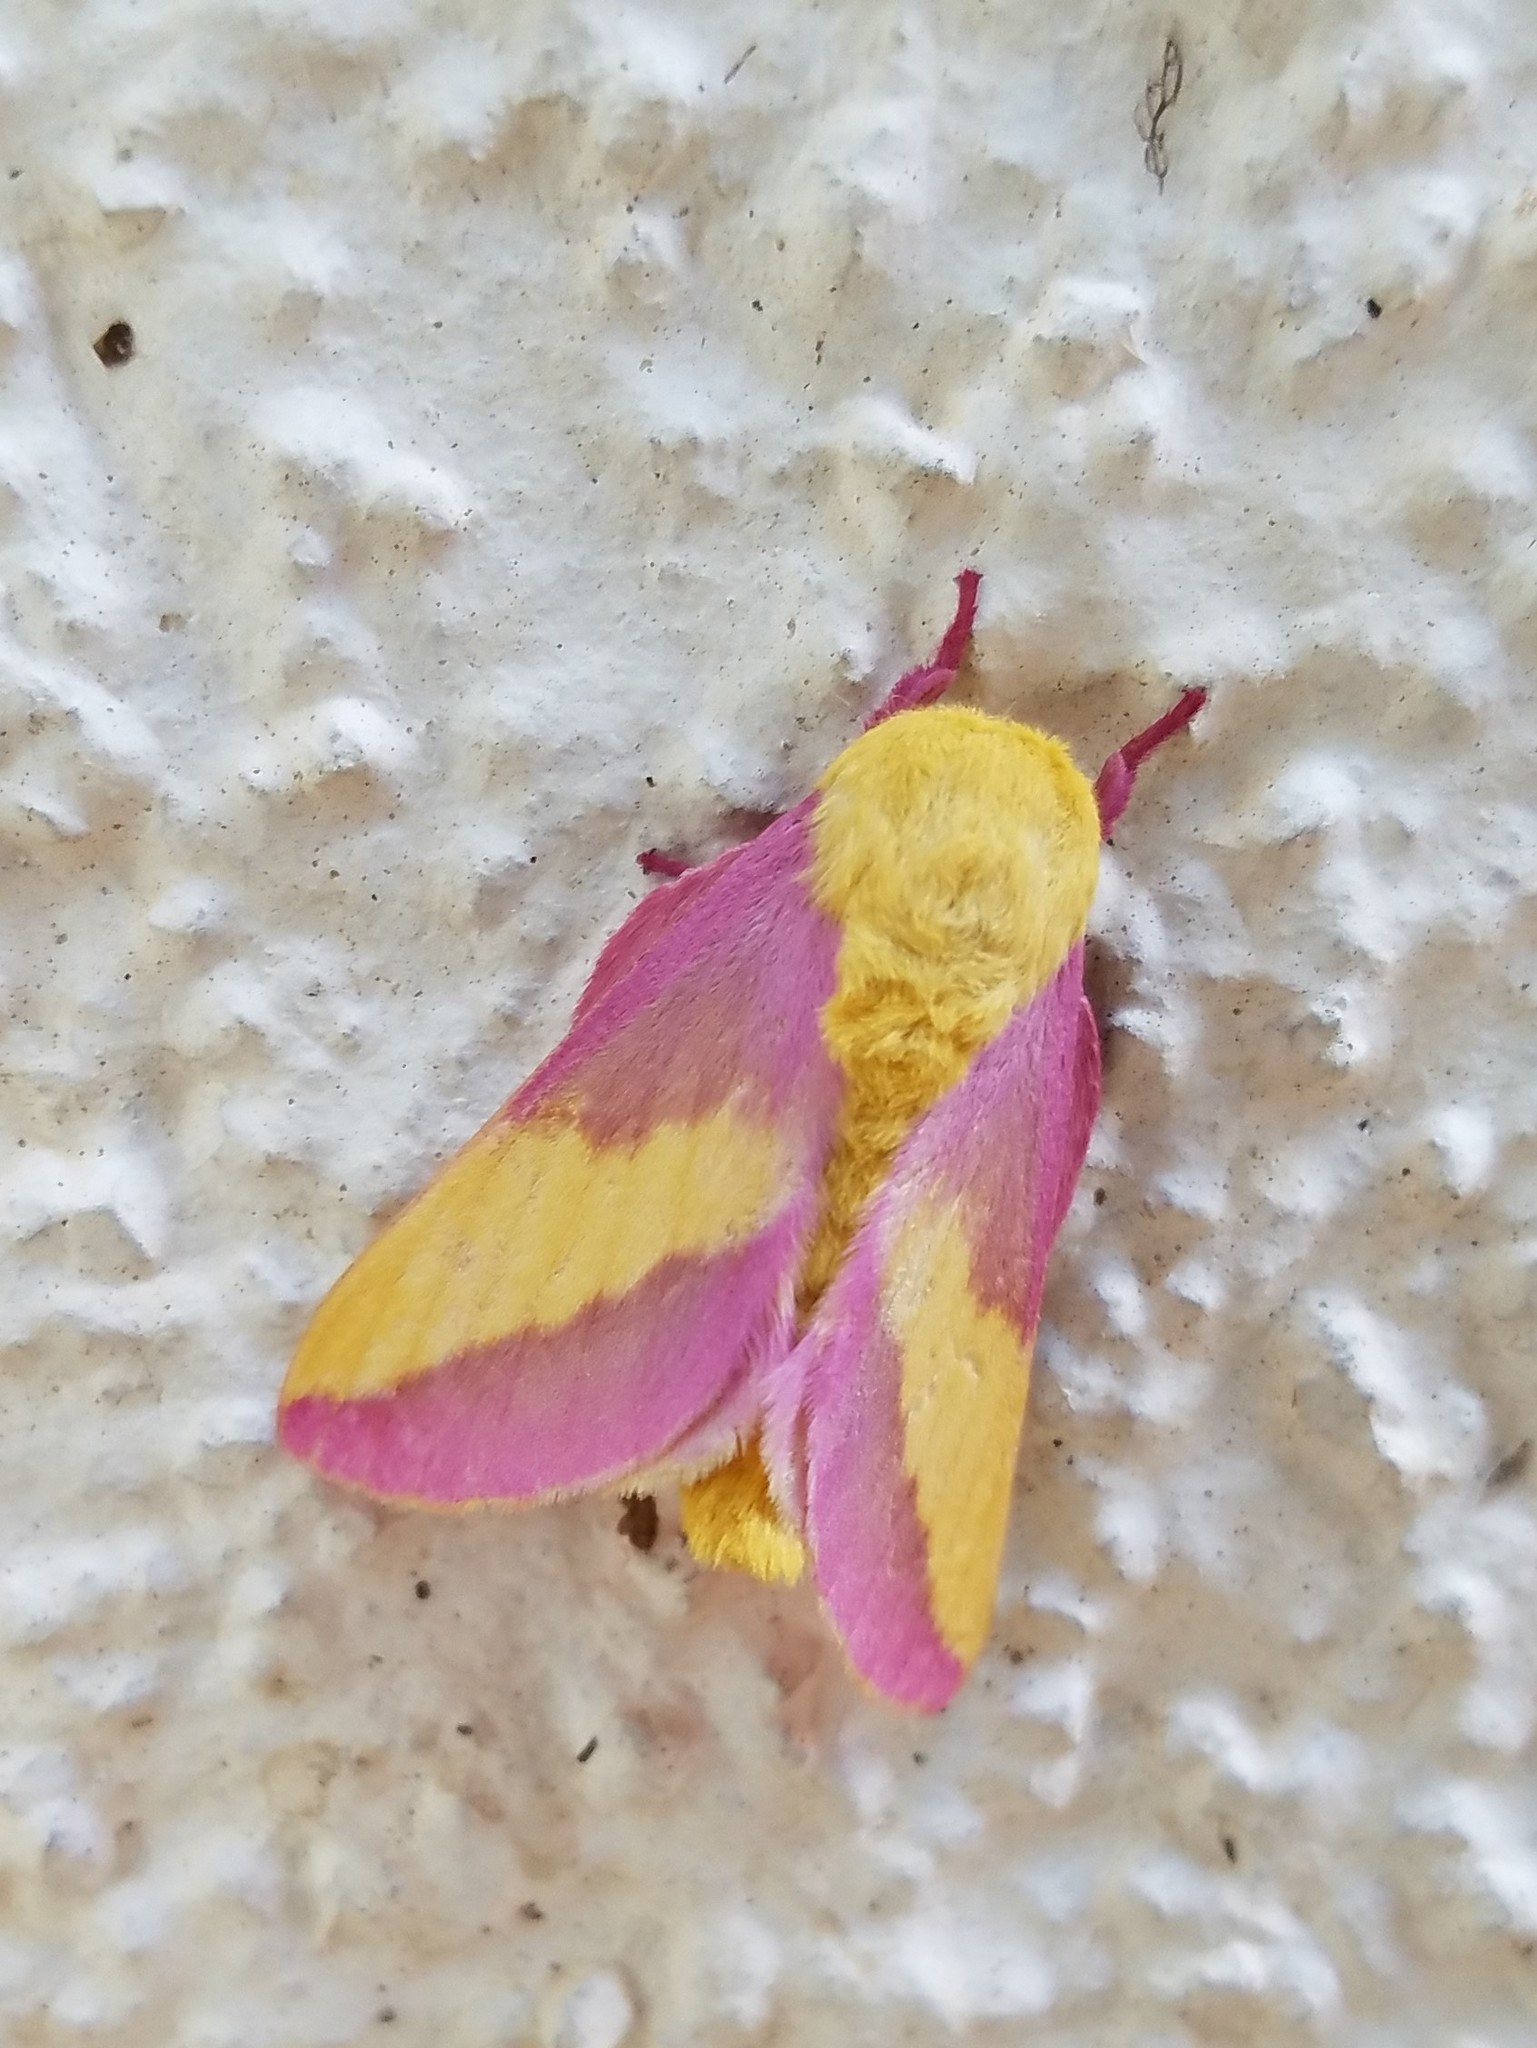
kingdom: Animalia
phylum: Arthropoda
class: Insecta
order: Lepidoptera
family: Saturniidae
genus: Dryocampa
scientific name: Dryocampa rubicunda
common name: Rosy maple moth
